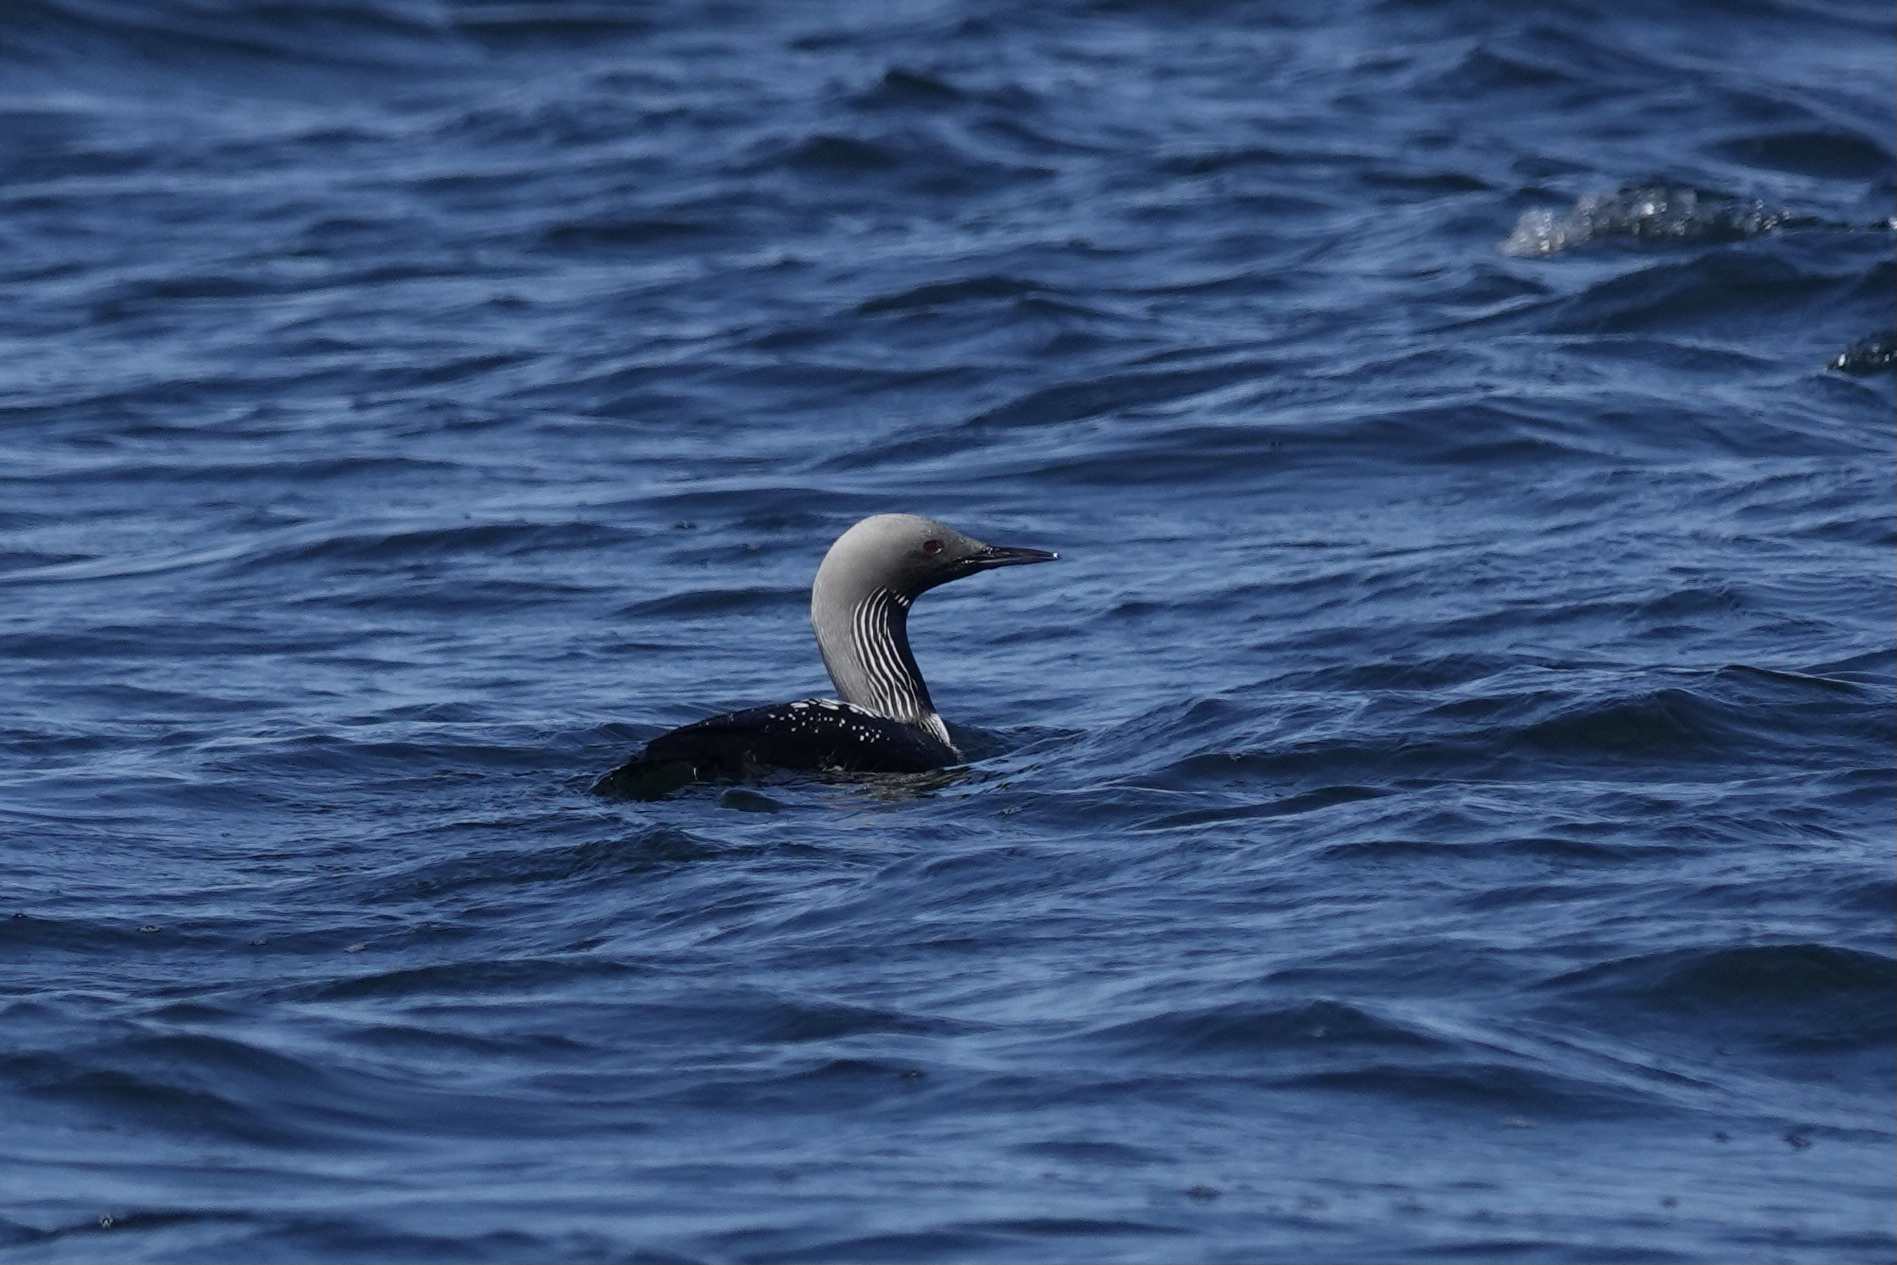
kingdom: Animalia
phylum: Chordata
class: Aves
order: Gaviiformes
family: Gaviidae
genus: Gavia
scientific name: Gavia pacifica
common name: Pacific loon
